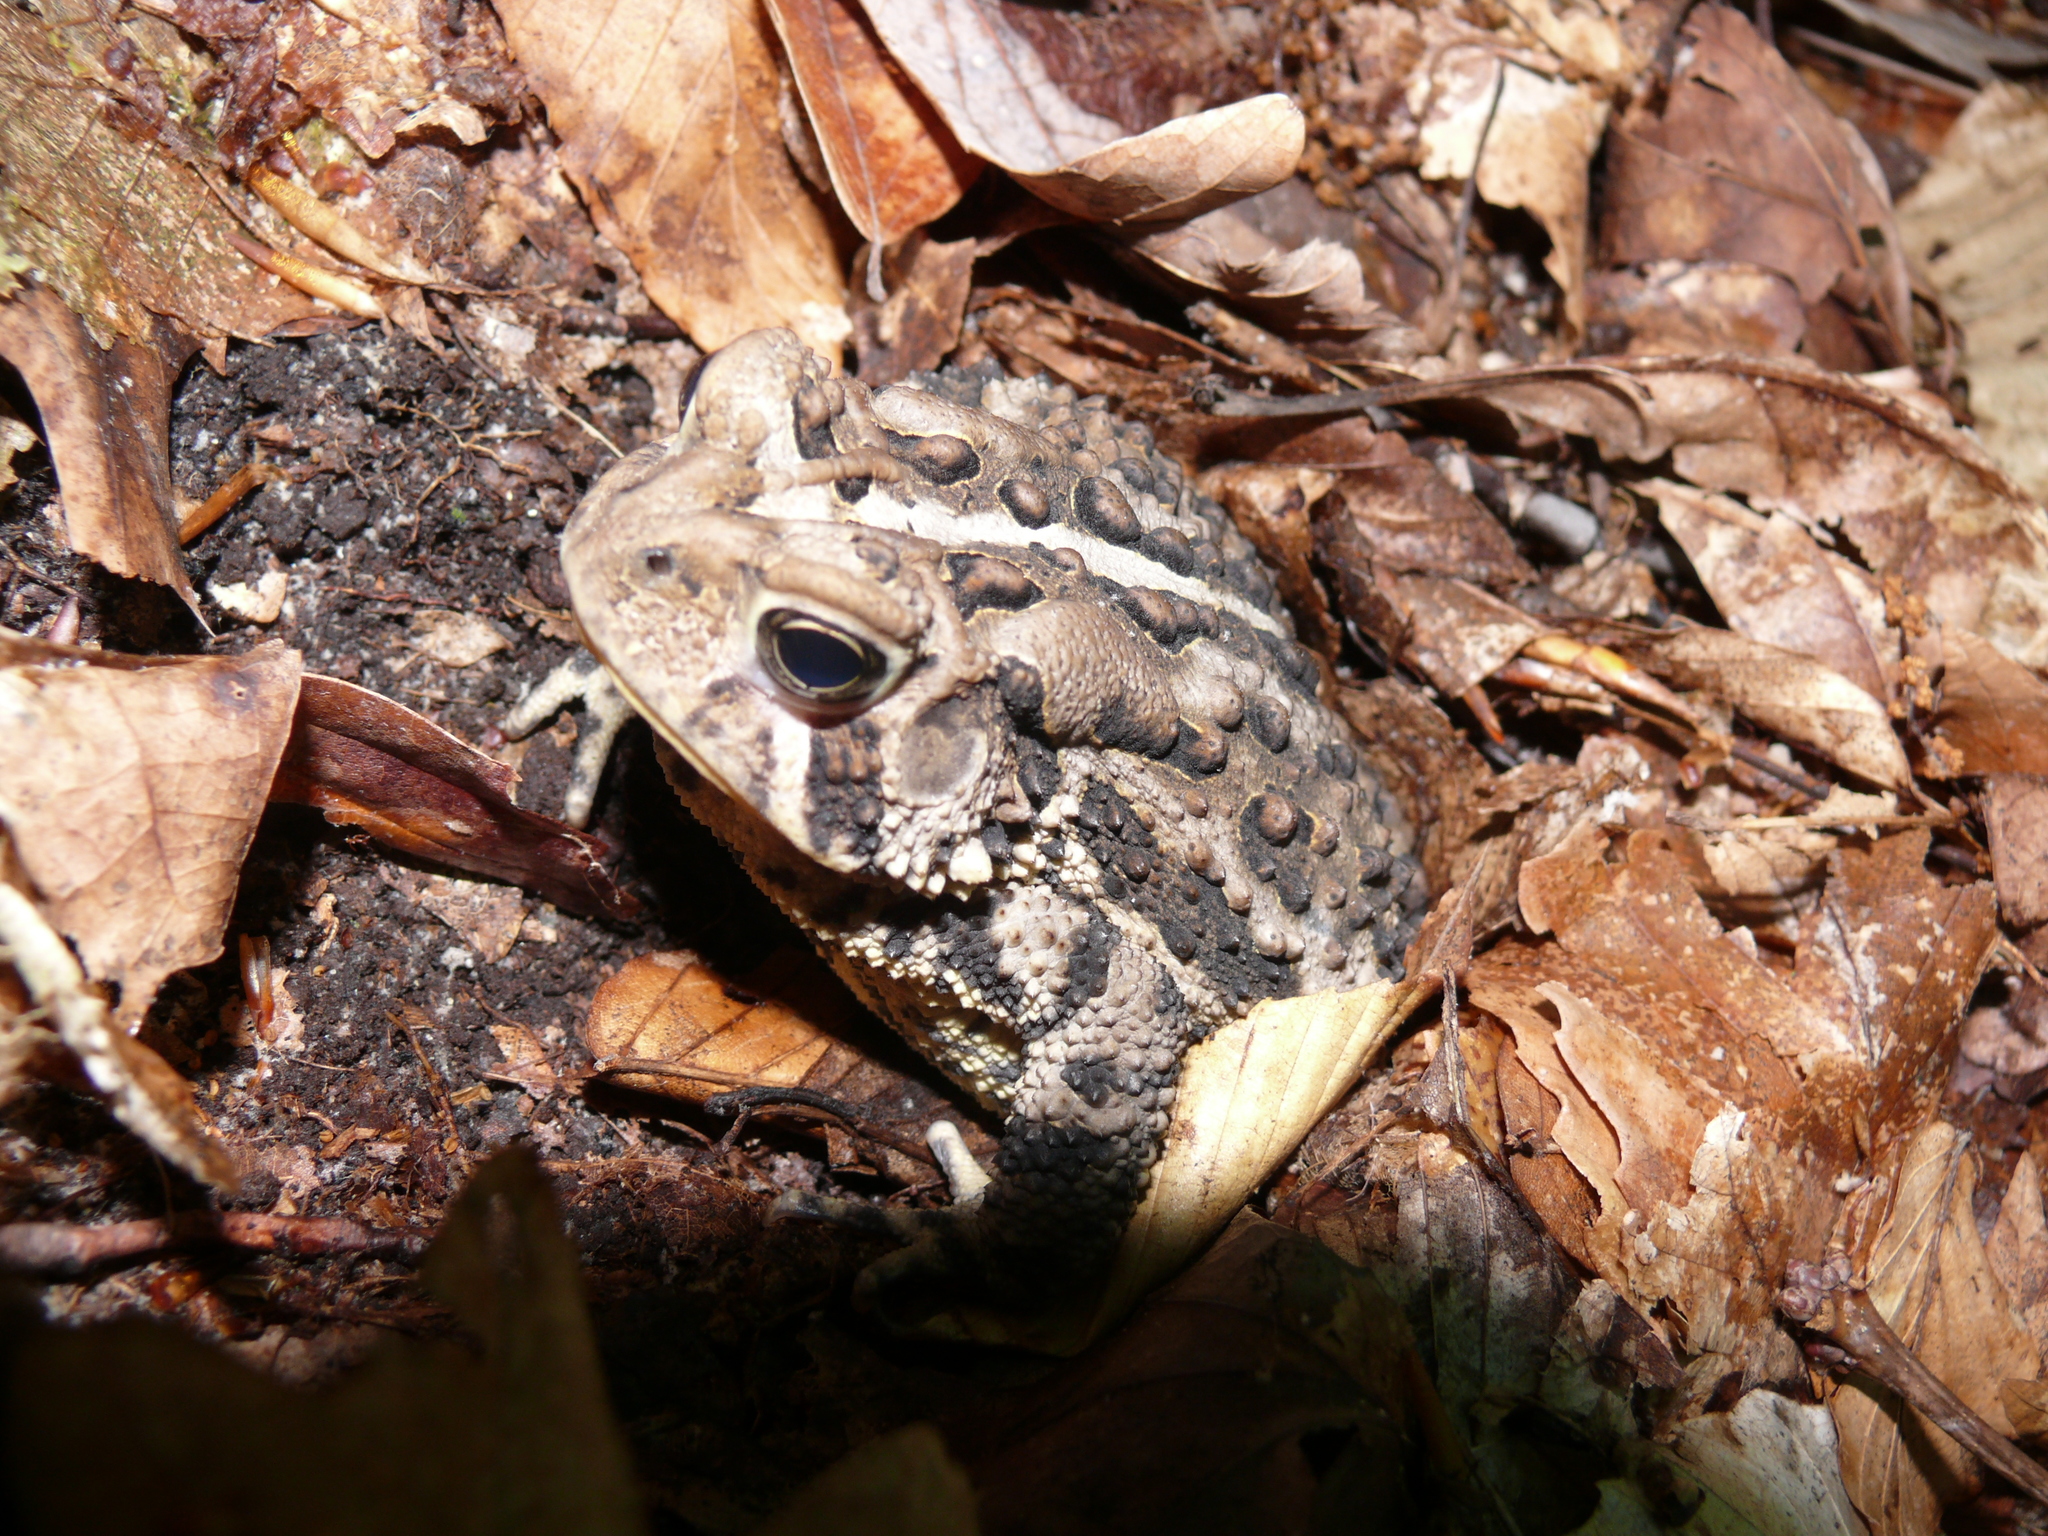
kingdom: Animalia
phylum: Chordata
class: Amphibia
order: Anura
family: Bufonidae
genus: Anaxyrus
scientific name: Anaxyrus americanus
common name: American toad
